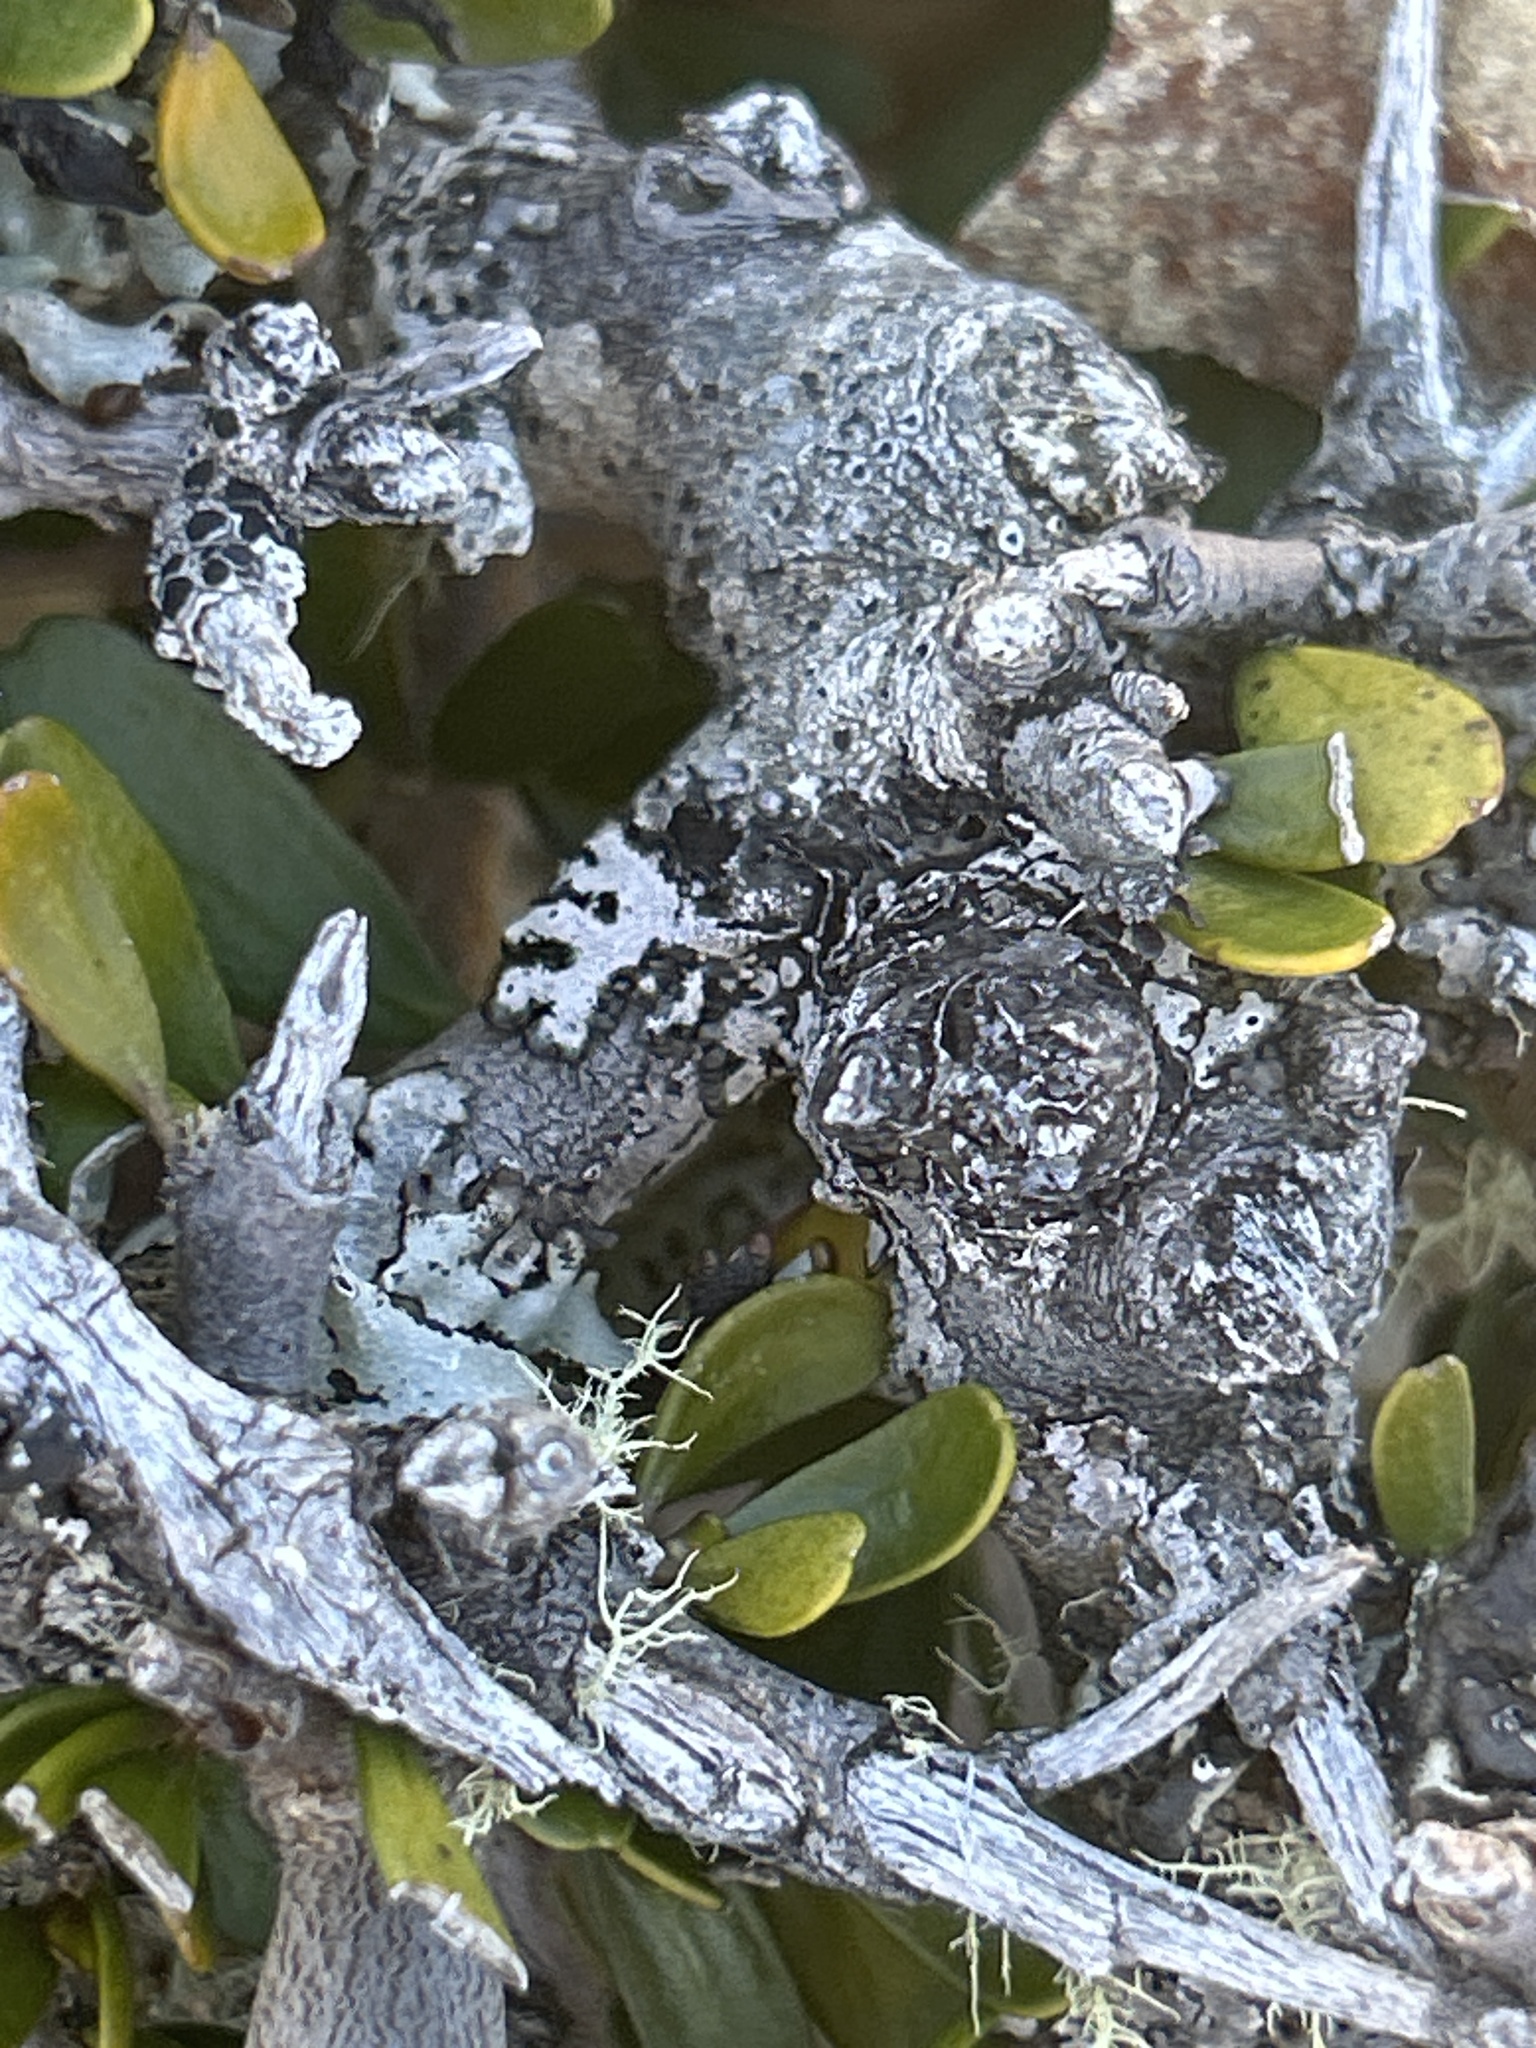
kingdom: Plantae
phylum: Tracheophyta
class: Magnoliopsida
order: Malpighiales
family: Violaceae
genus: Melicytus
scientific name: Melicytus alpinus
